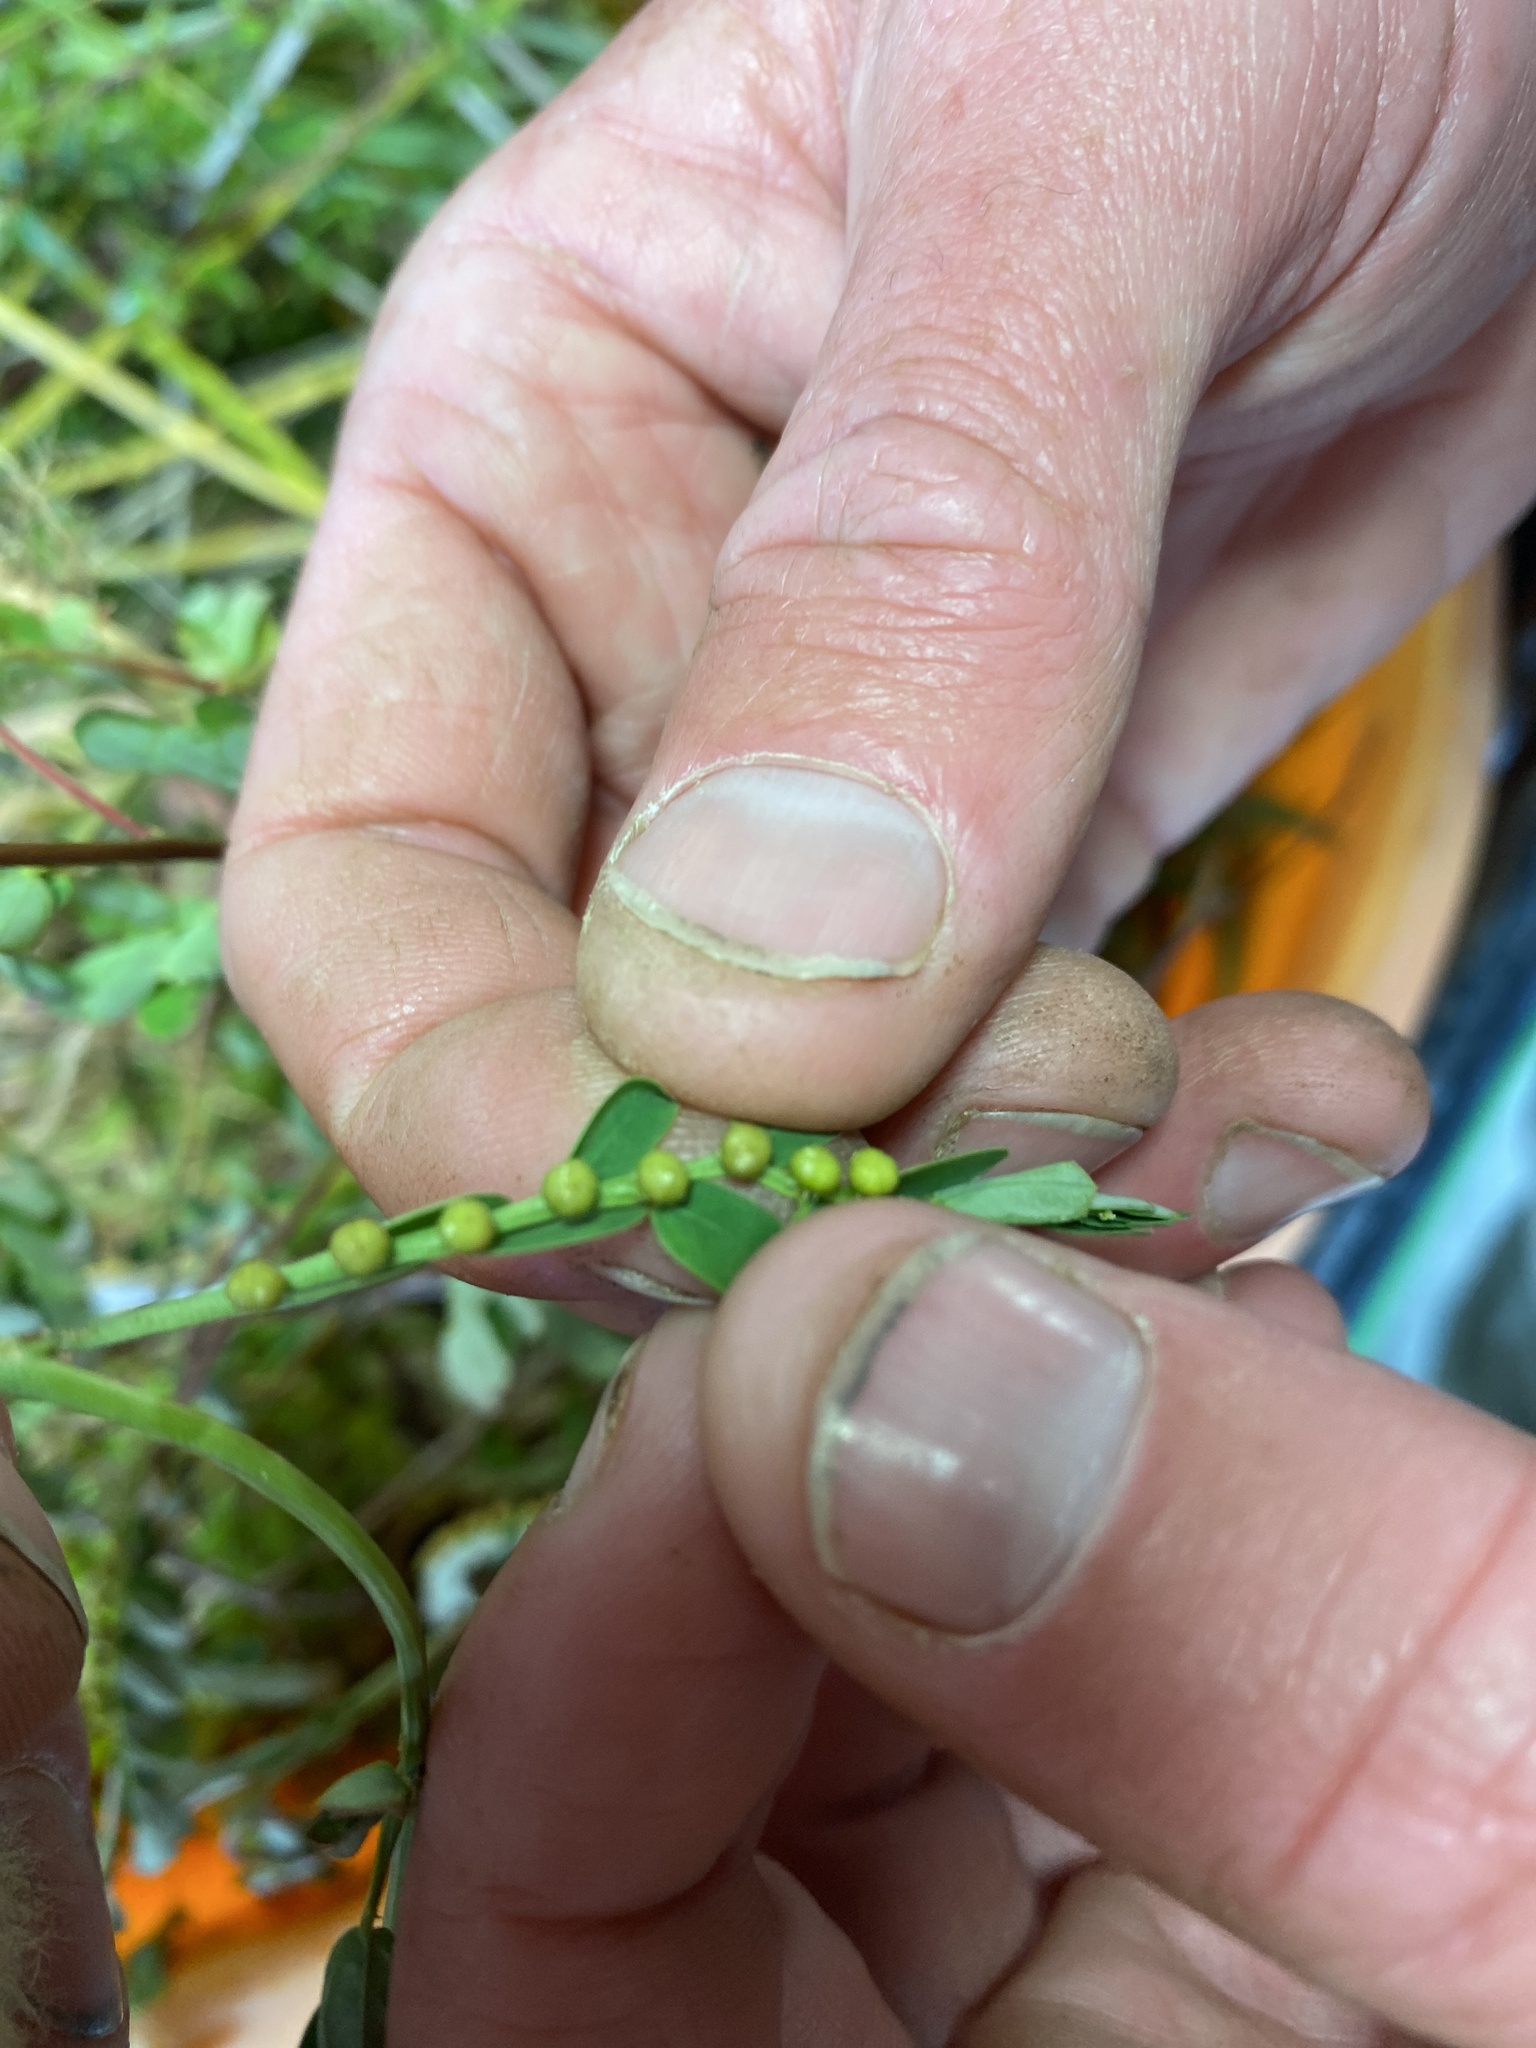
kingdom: Plantae
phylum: Tracheophyta
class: Magnoliopsida
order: Malpighiales
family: Phyllanthaceae
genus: Phyllanthus
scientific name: Phyllanthus urinaria
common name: Chamber bitter
